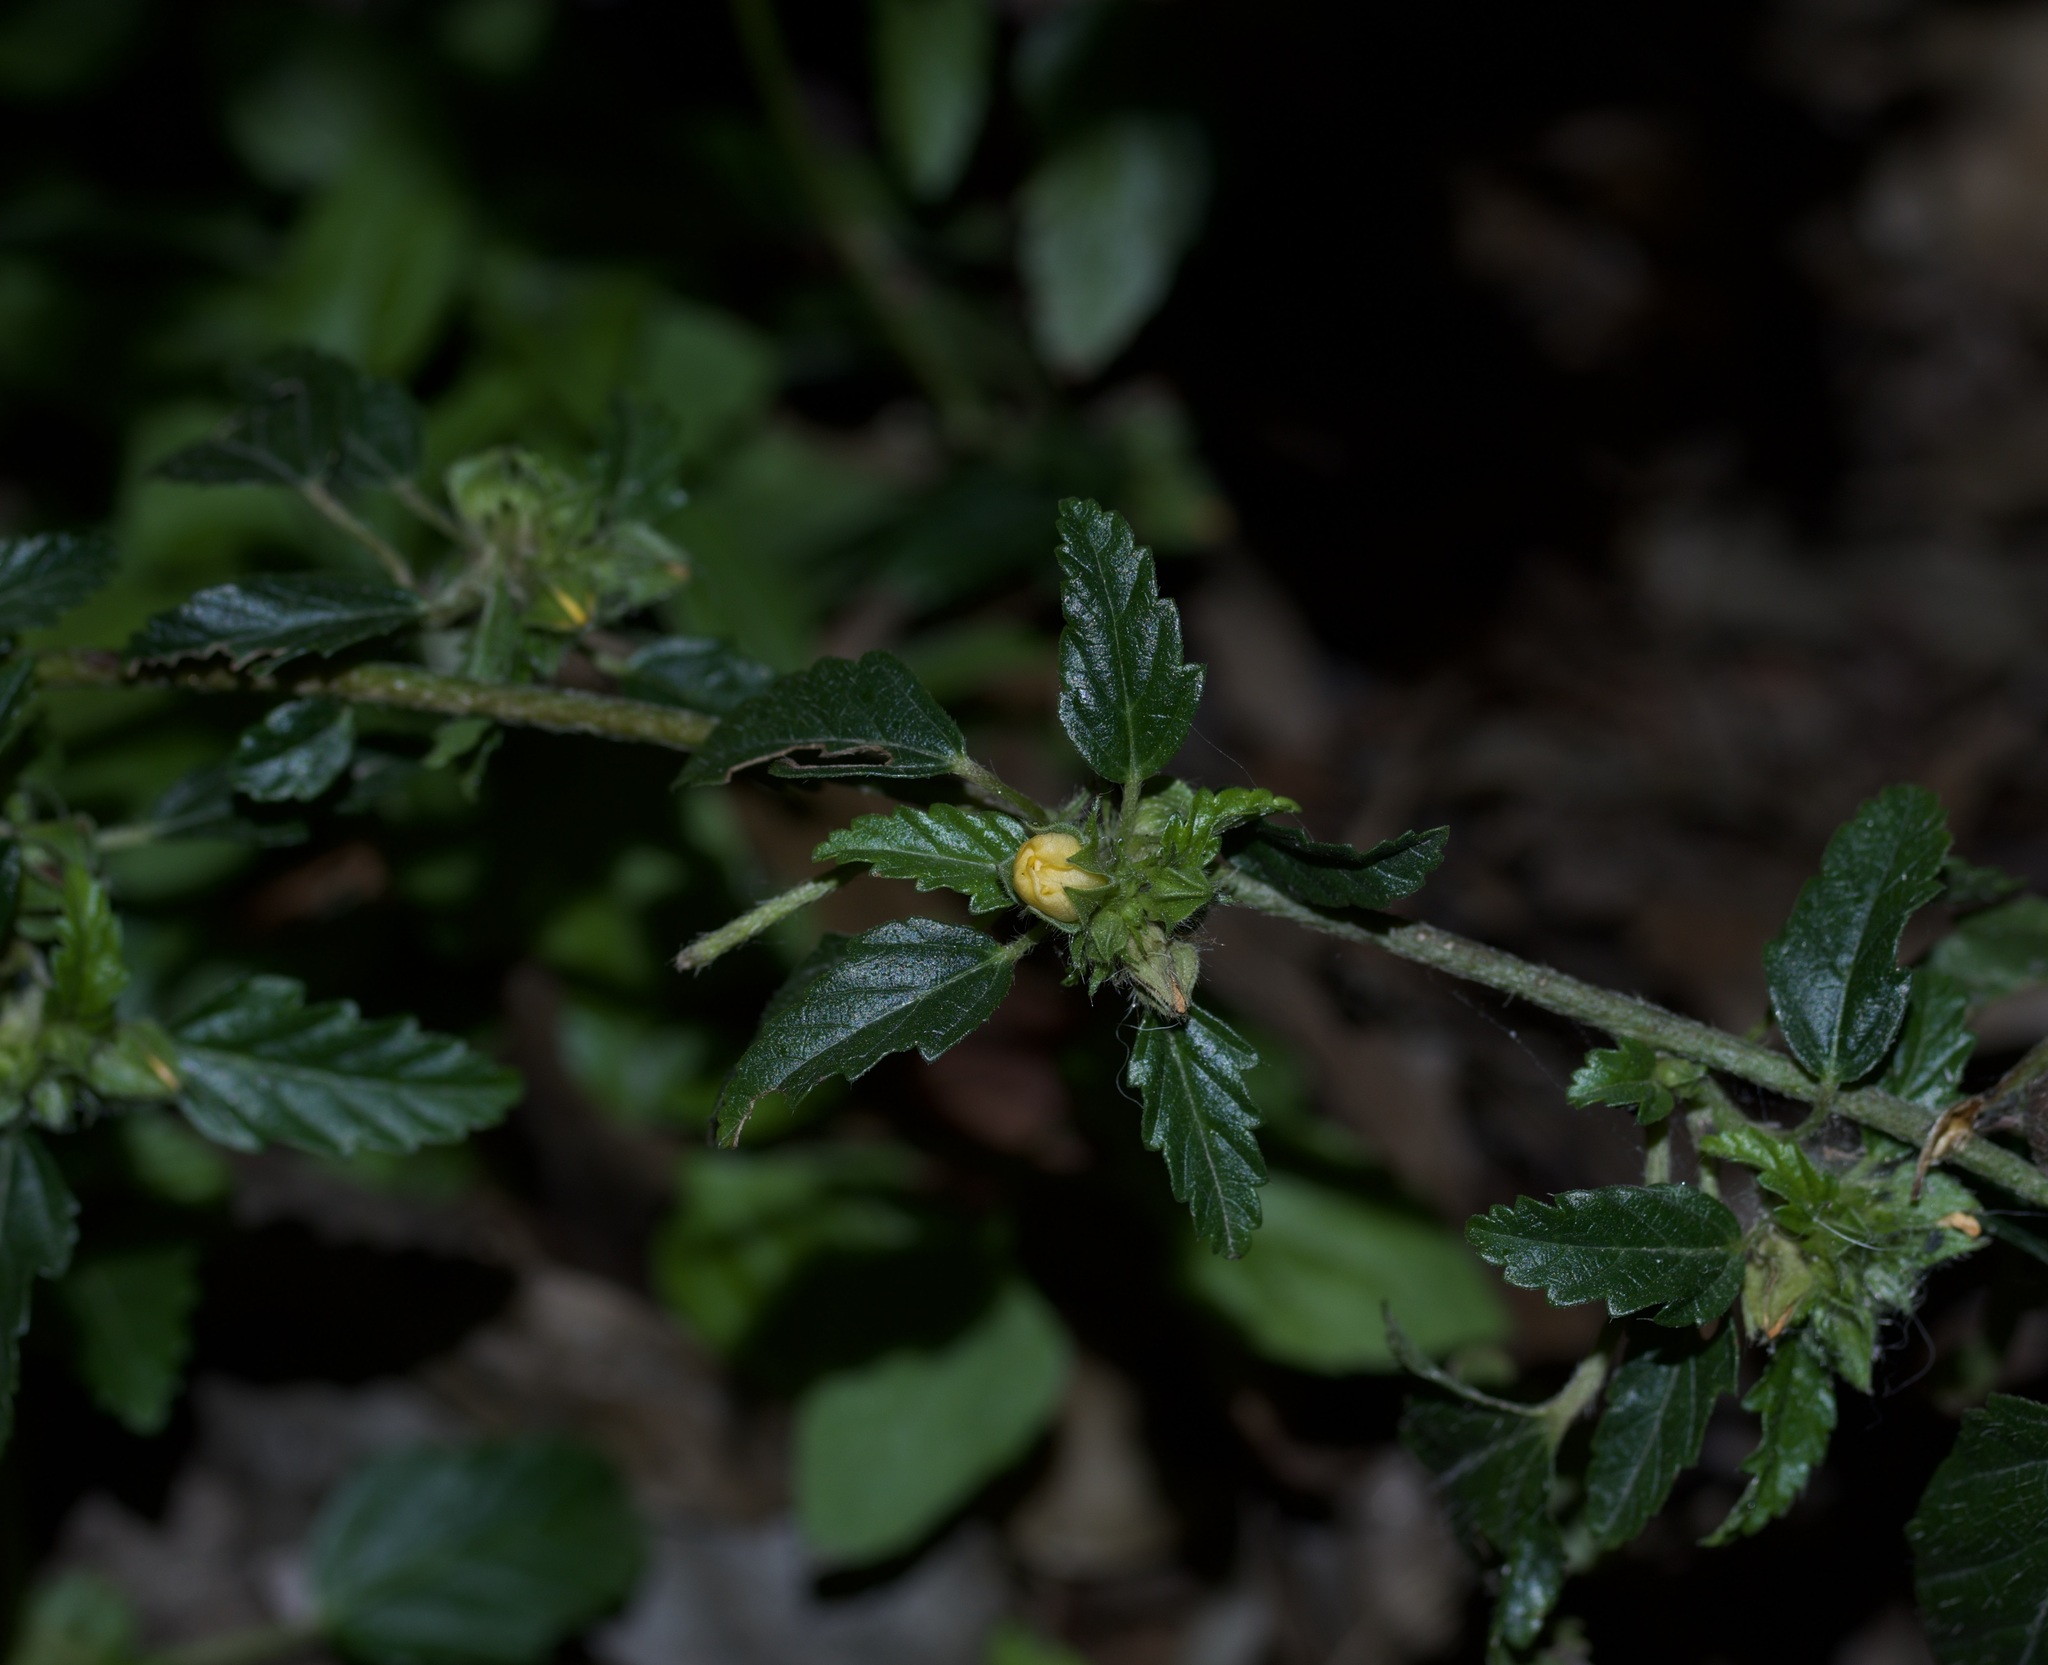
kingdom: Plantae
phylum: Tracheophyta
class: Magnoliopsida
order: Malvales
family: Malvaceae
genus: Malvastrum
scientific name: Malvastrum coromandelianum
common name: Threelobe false mallow
